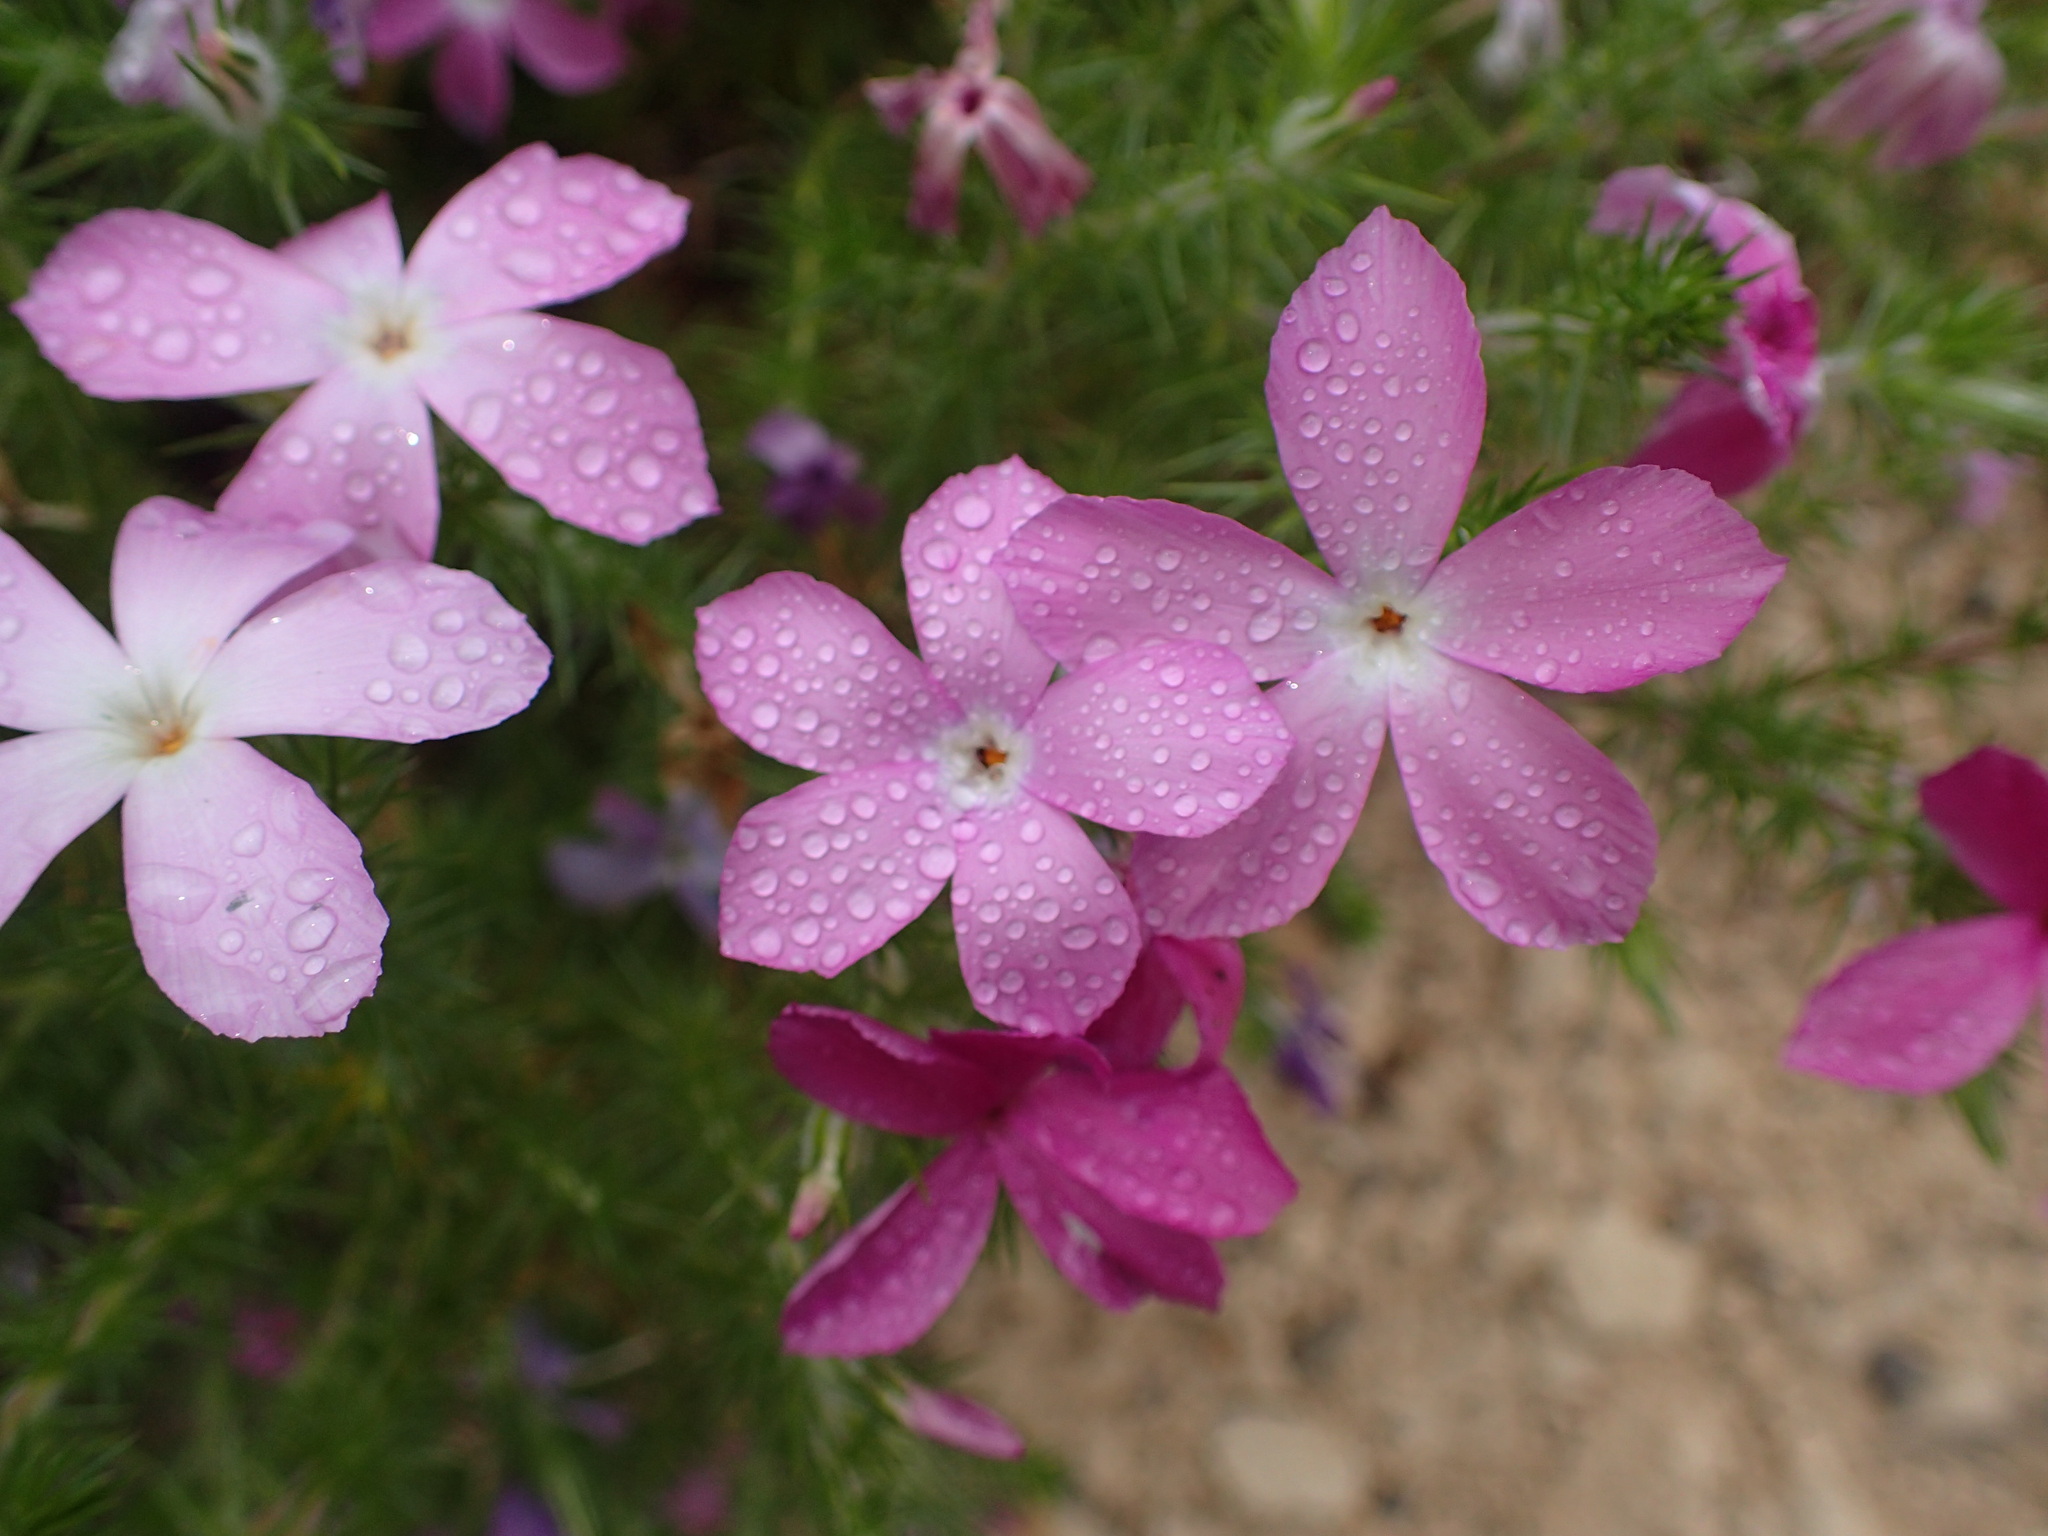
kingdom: Plantae
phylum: Tracheophyta
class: Magnoliopsida
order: Ericales
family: Polemoniaceae
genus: Linanthus
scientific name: Linanthus californicus
